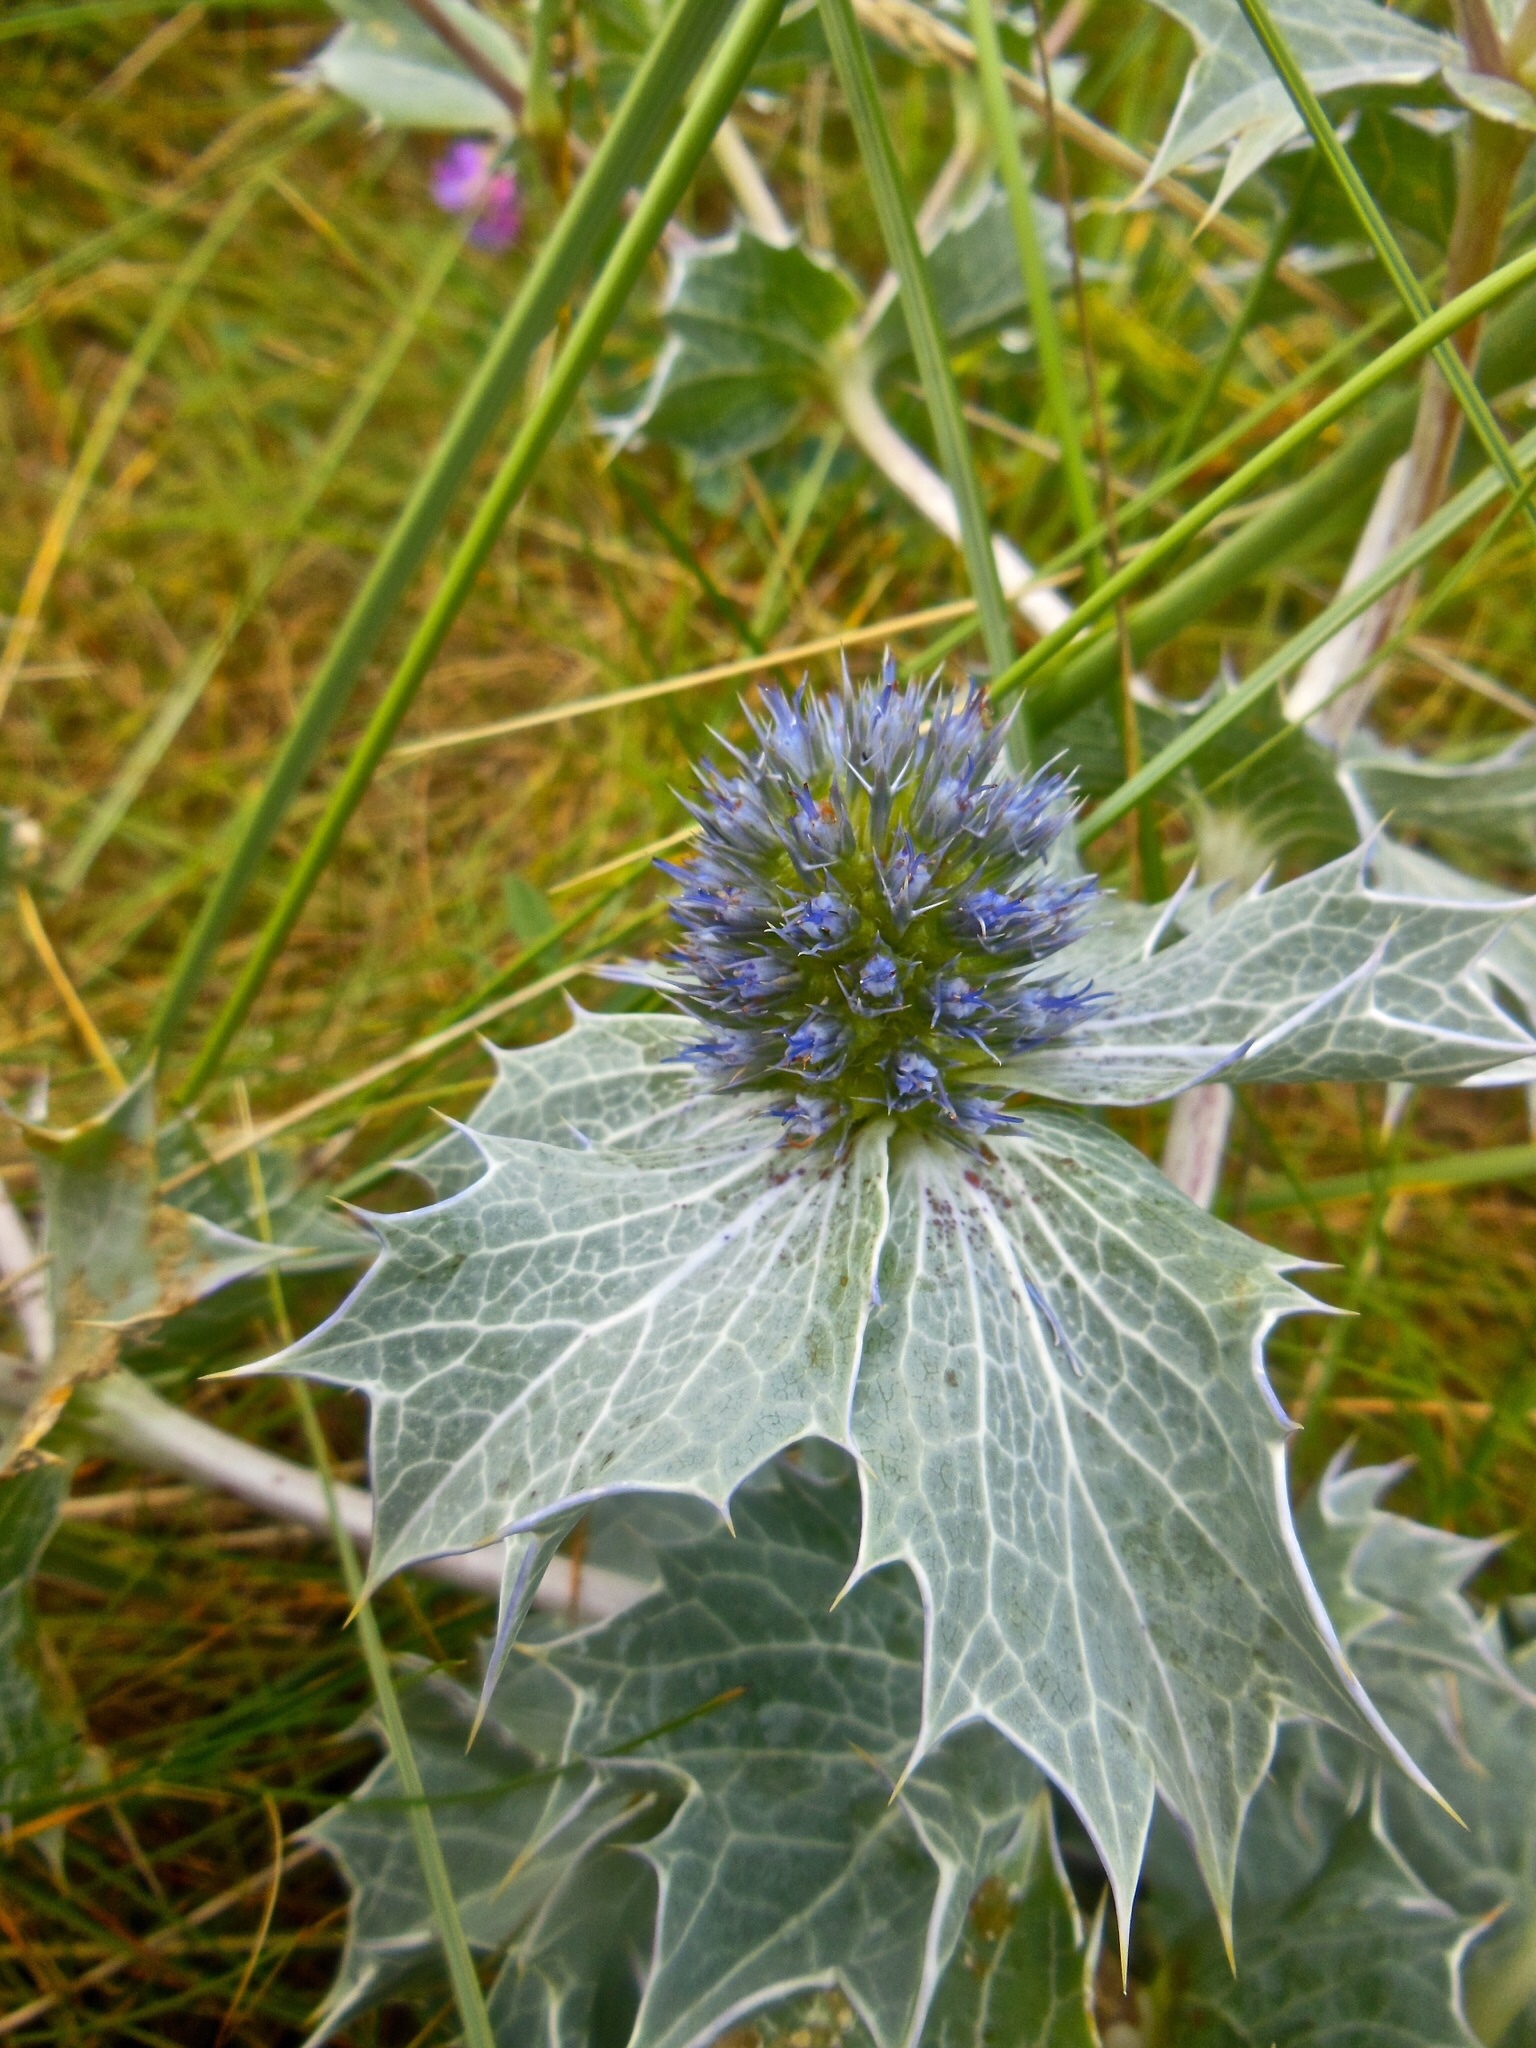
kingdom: Plantae
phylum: Tracheophyta
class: Magnoliopsida
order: Apiales
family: Apiaceae
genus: Eryngium
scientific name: Eryngium maritimum
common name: Sea-holly
